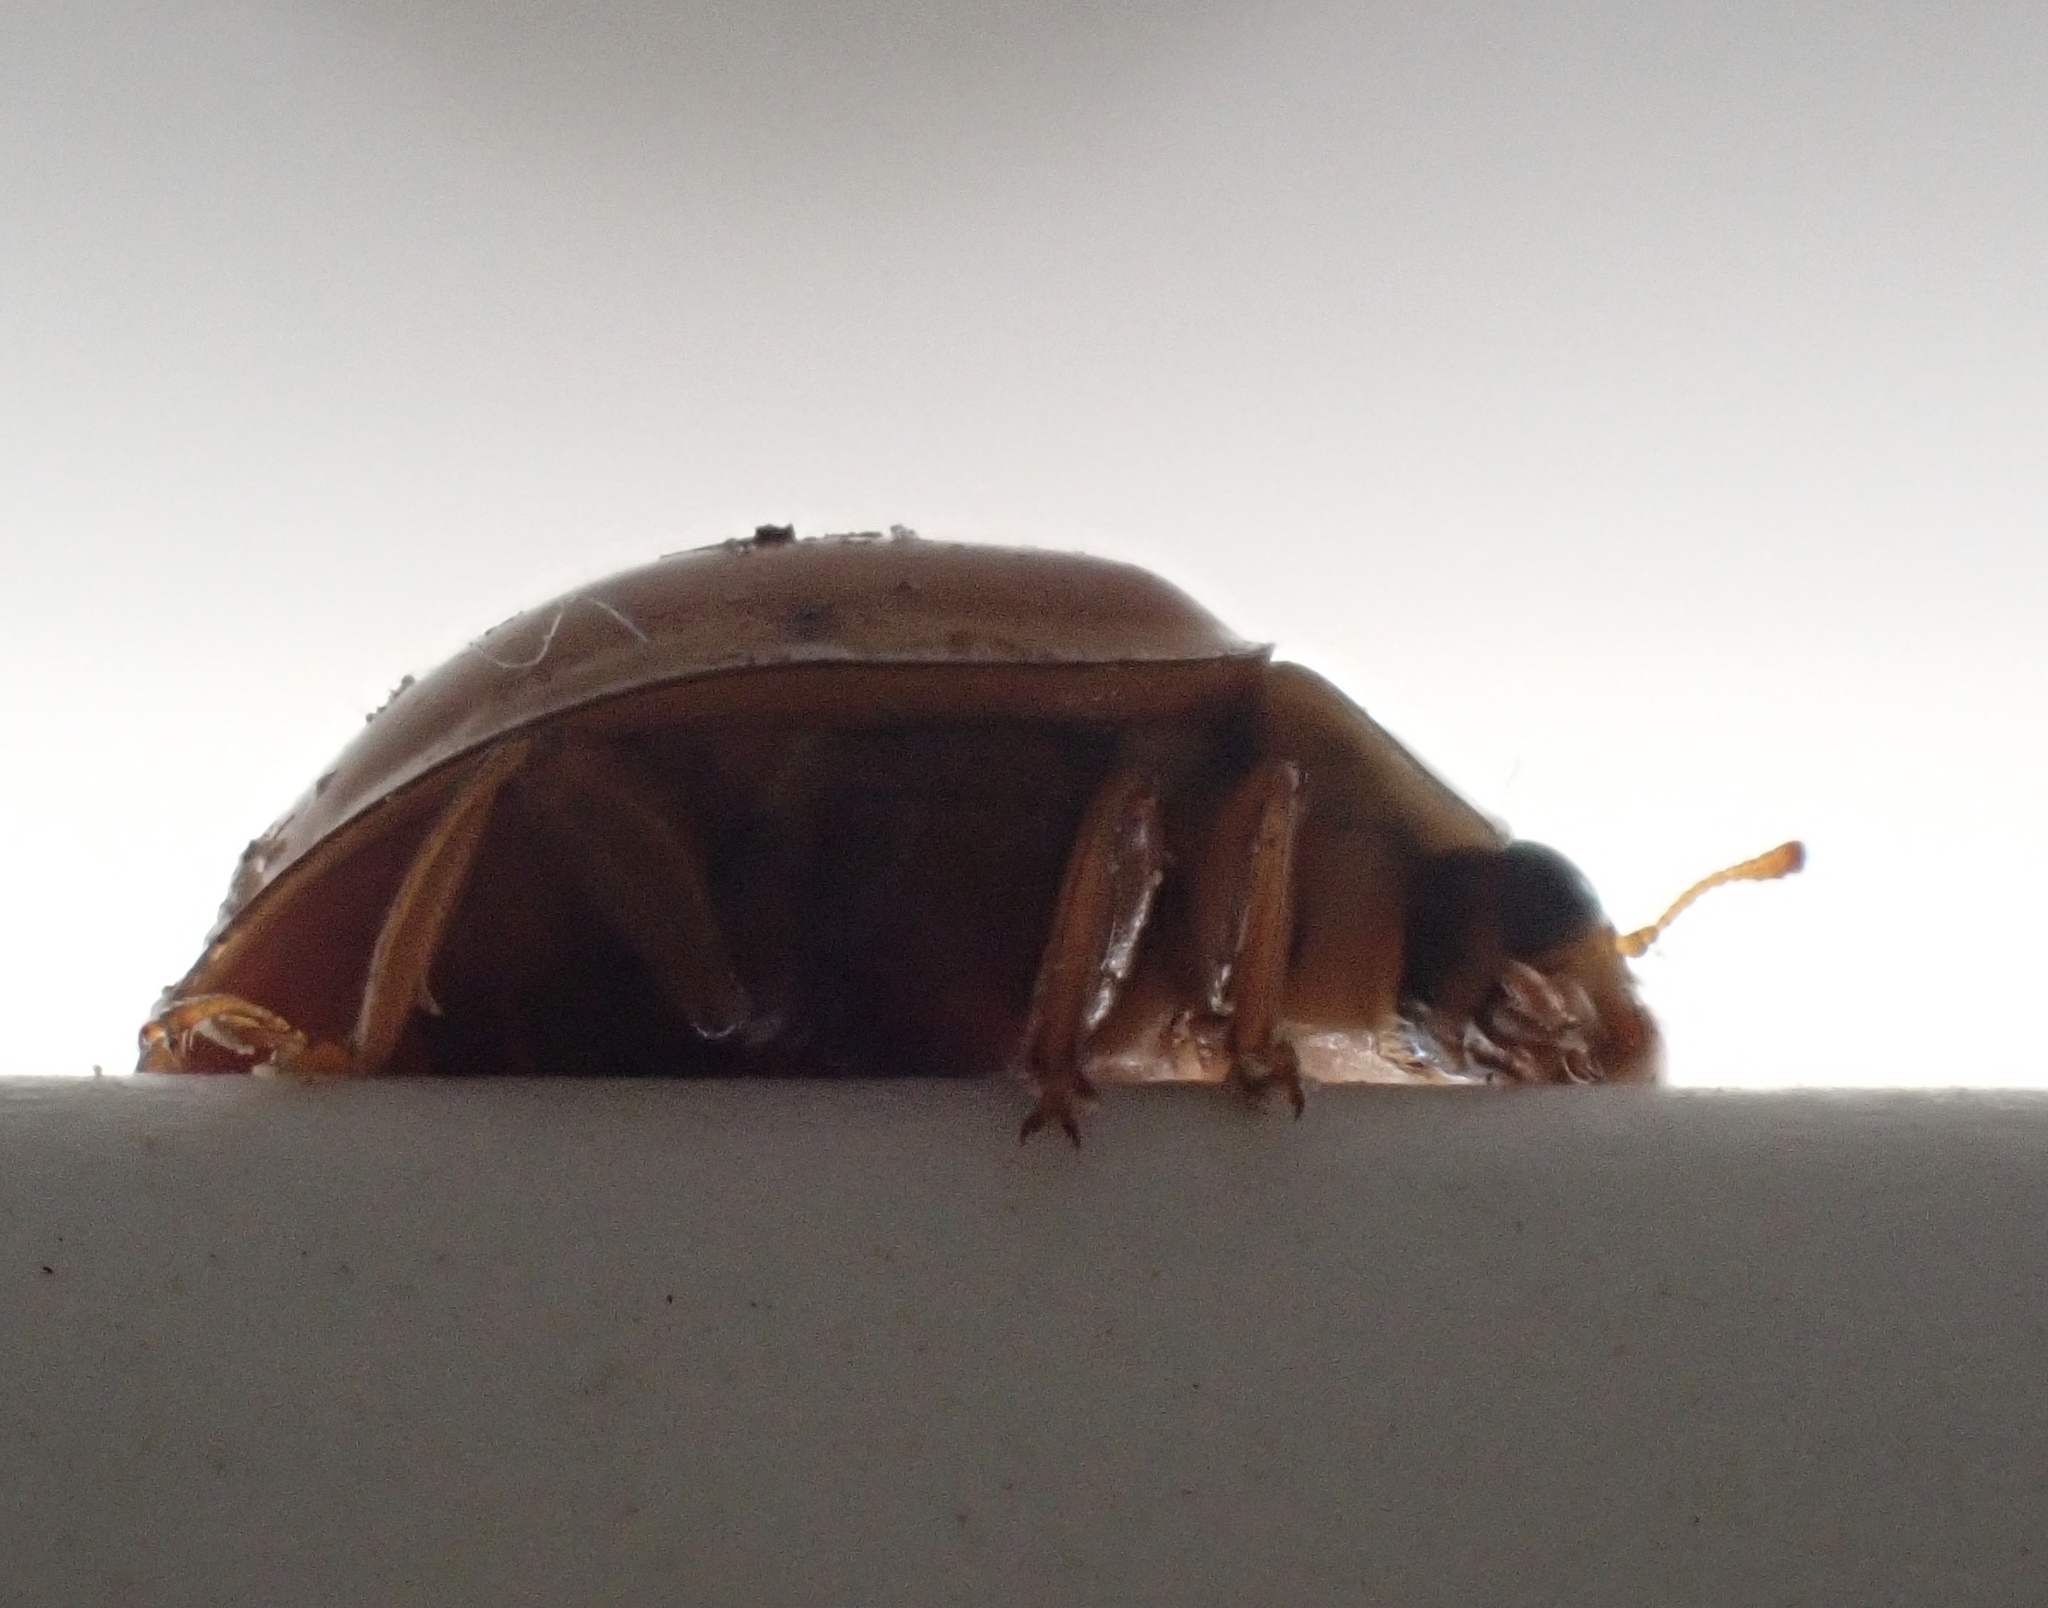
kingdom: Animalia
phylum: Arthropoda
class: Insecta
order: Coleoptera
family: Coccinellidae
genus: Harmonia
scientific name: Harmonia axyridis
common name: Harlequin ladybird
